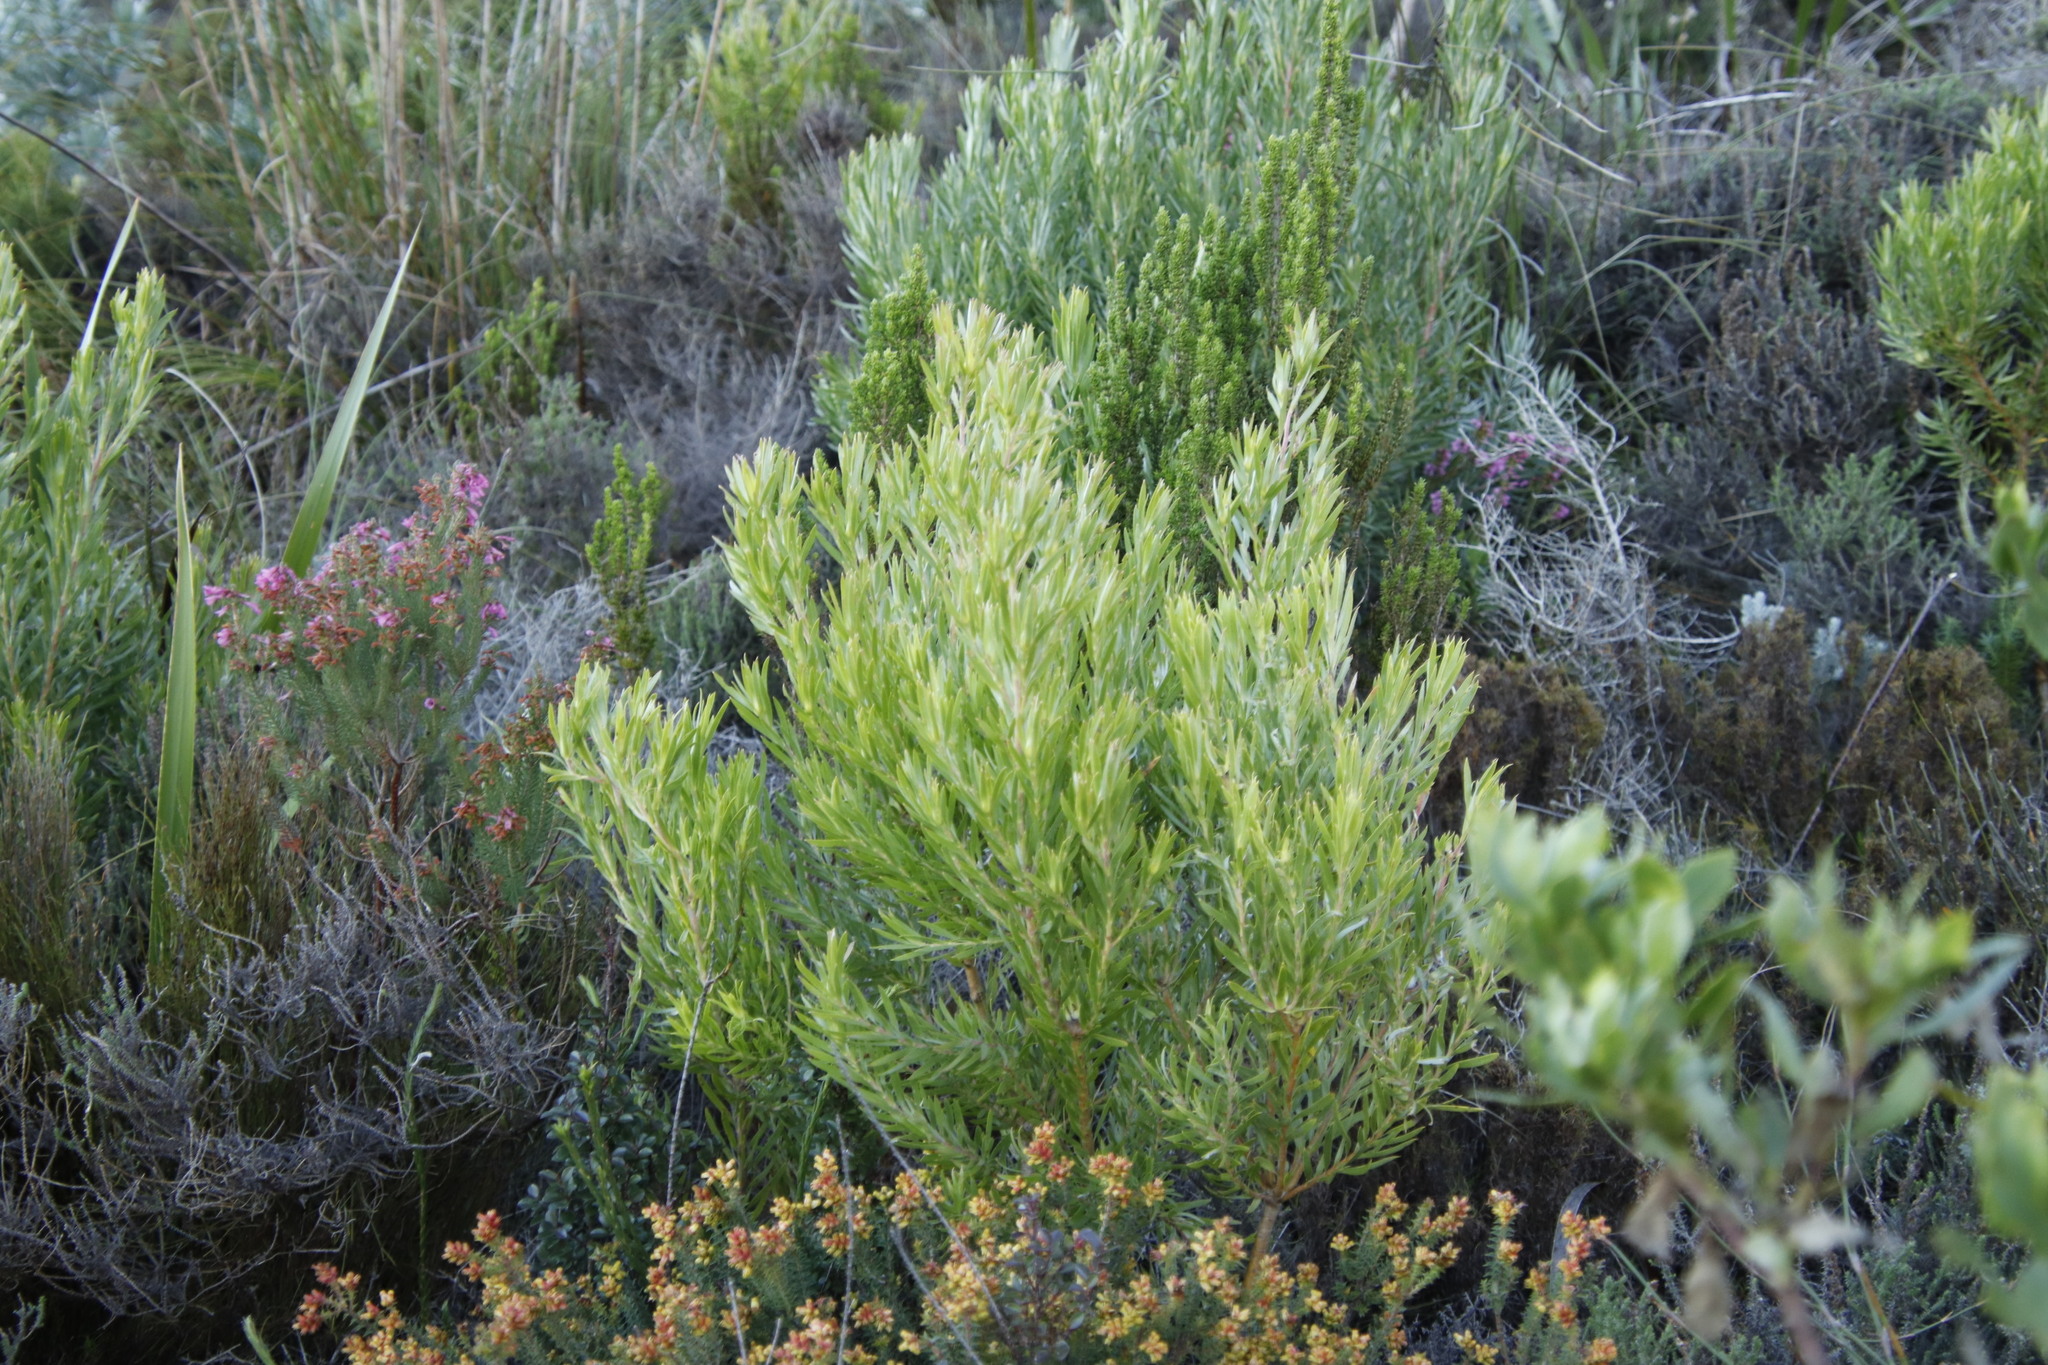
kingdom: Plantae
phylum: Tracheophyta
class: Magnoliopsida
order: Proteales
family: Proteaceae
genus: Leucadendron
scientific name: Leucadendron xanthoconus
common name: Sickle-leaf conebush
